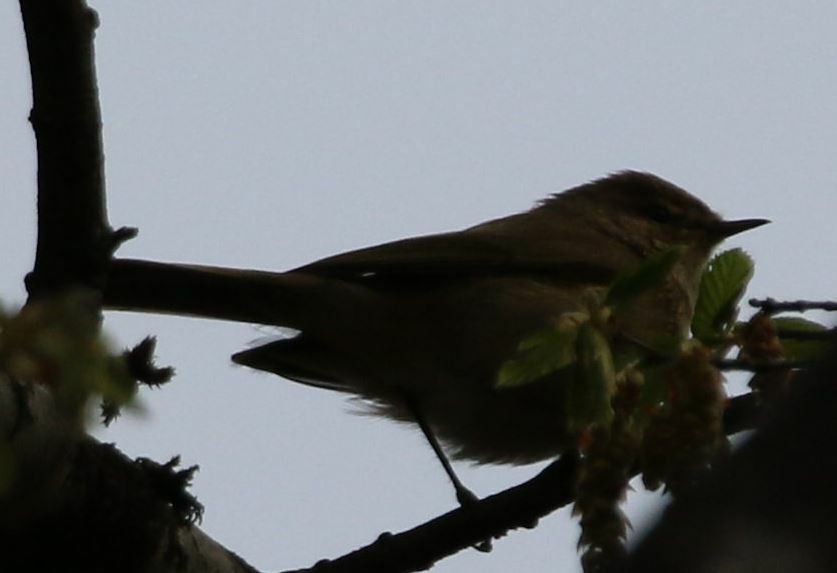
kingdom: Animalia
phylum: Chordata
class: Aves
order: Passeriformes
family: Phylloscopidae
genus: Phylloscopus
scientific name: Phylloscopus collybita
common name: Common chiffchaff
